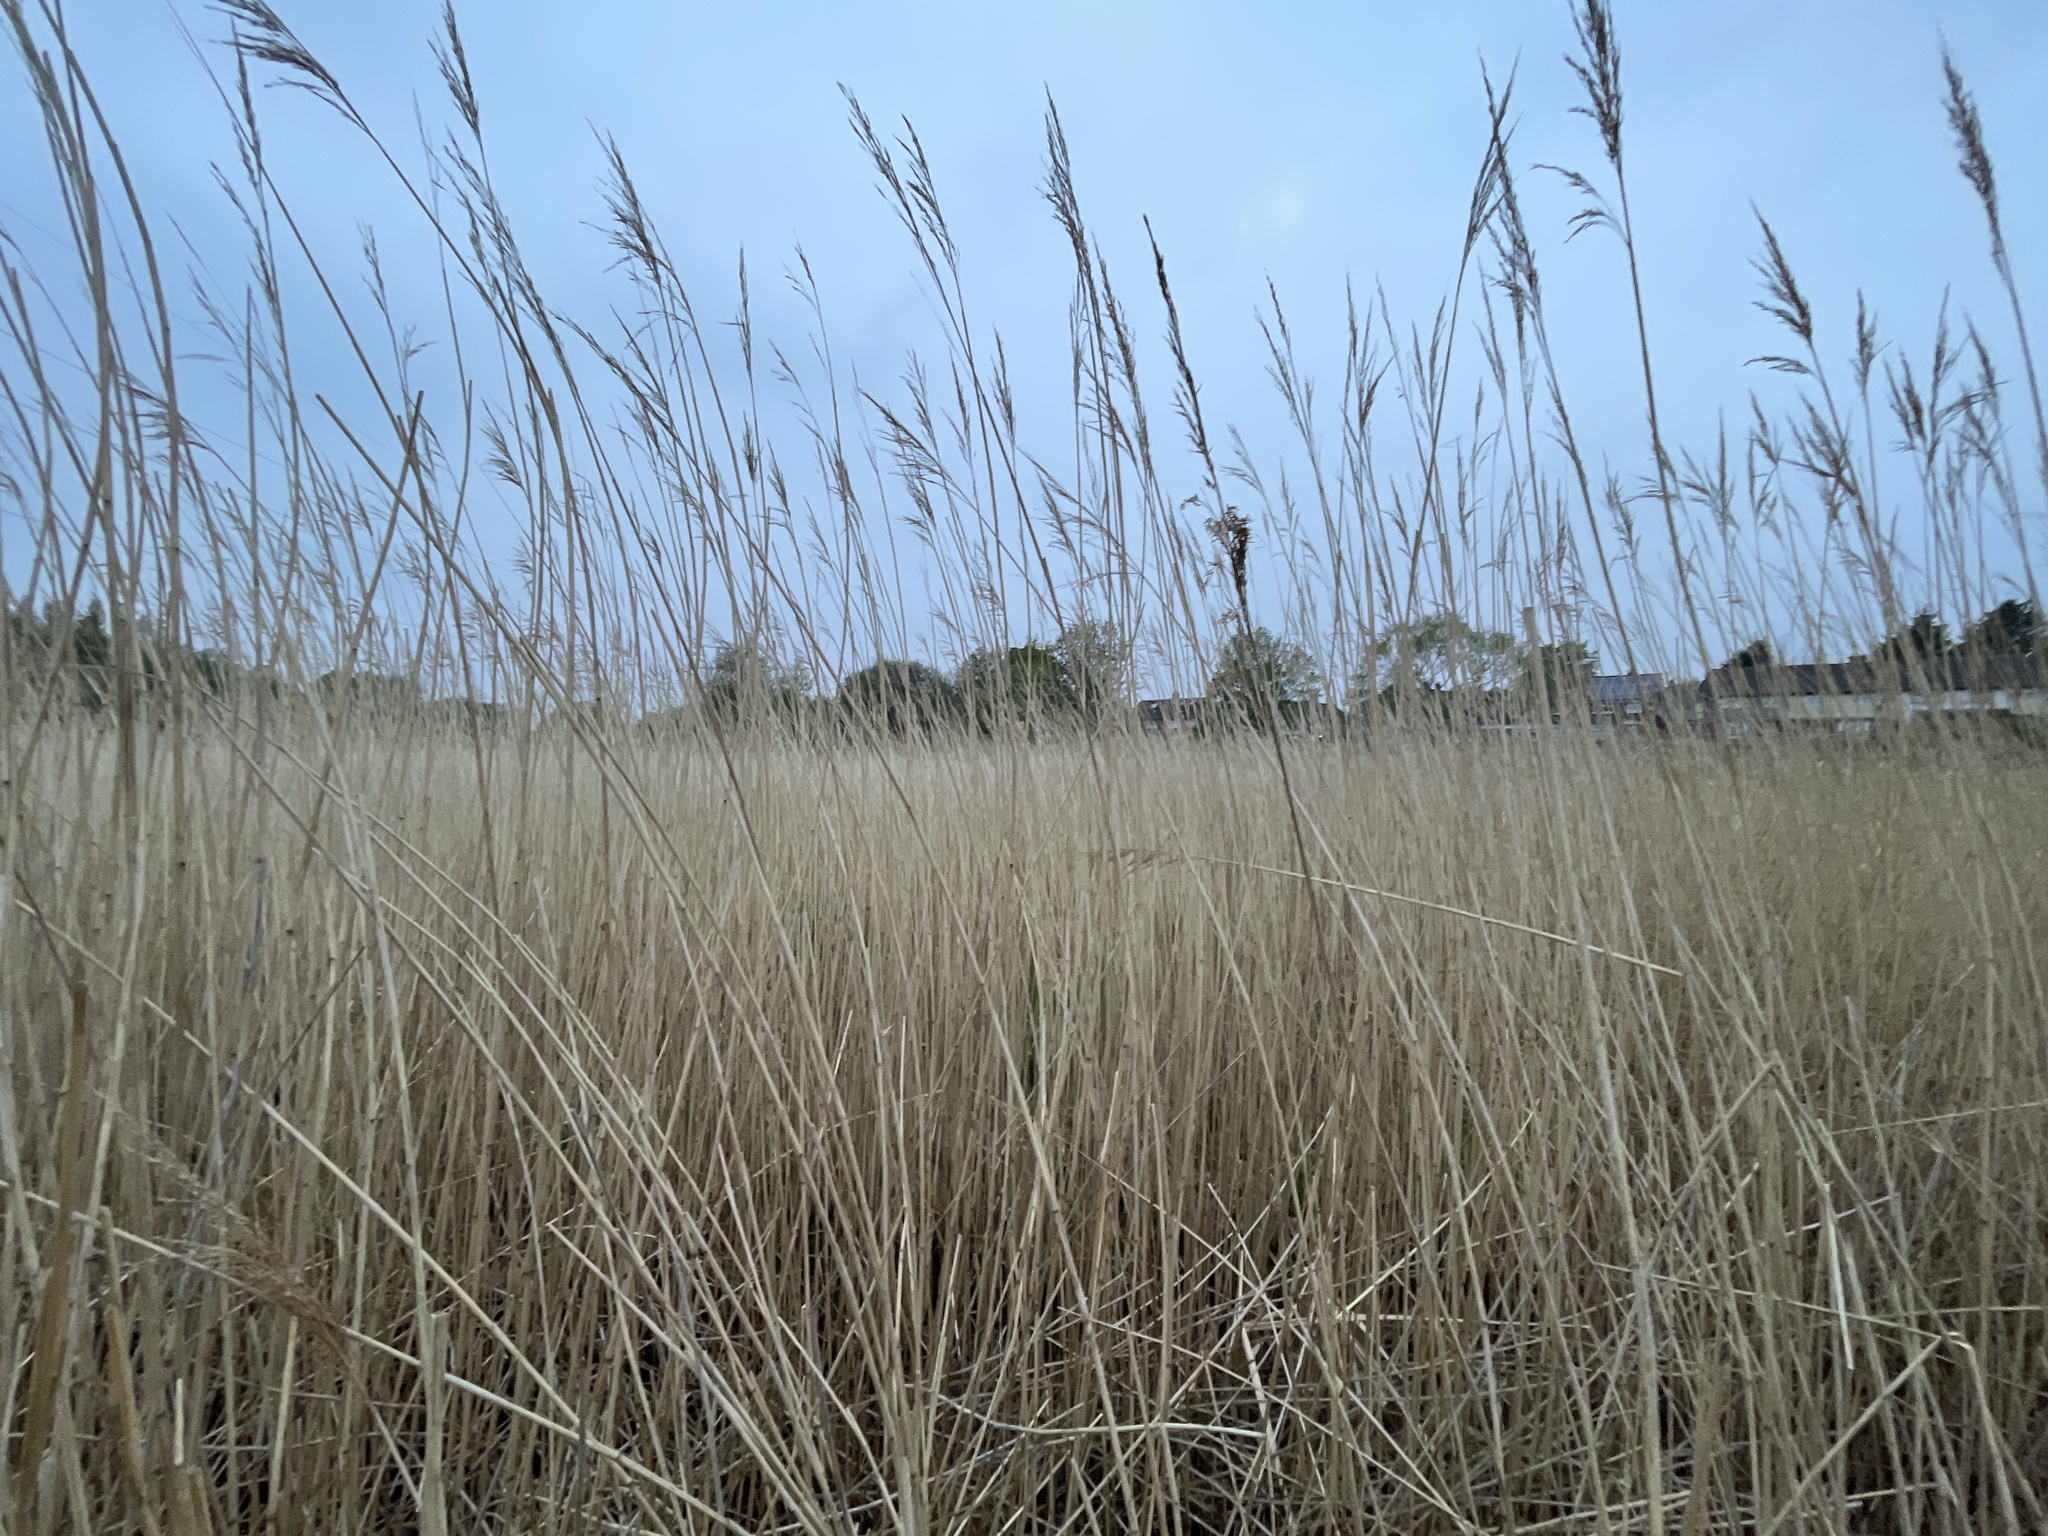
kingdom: Plantae
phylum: Tracheophyta
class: Liliopsida
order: Poales
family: Poaceae
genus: Phragmites
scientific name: Phragmites australis
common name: Common reed
